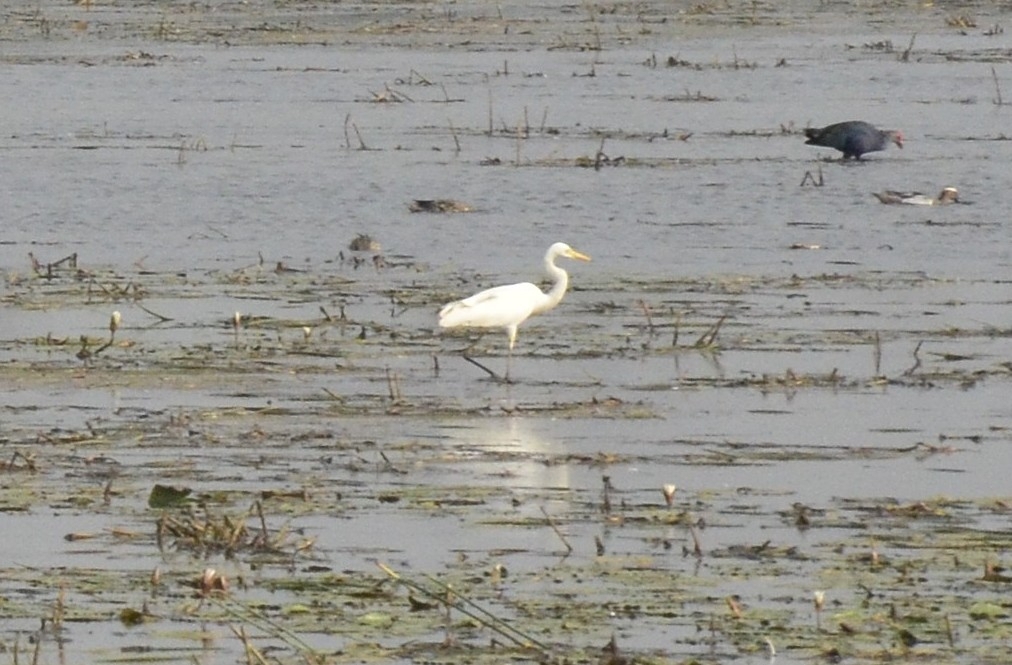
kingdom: Animalia
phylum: Chordata
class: Aves
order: Pelecaniformes
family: Ardeidae
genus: Egretta
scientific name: Egretta intermedia
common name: Intermediate egret
